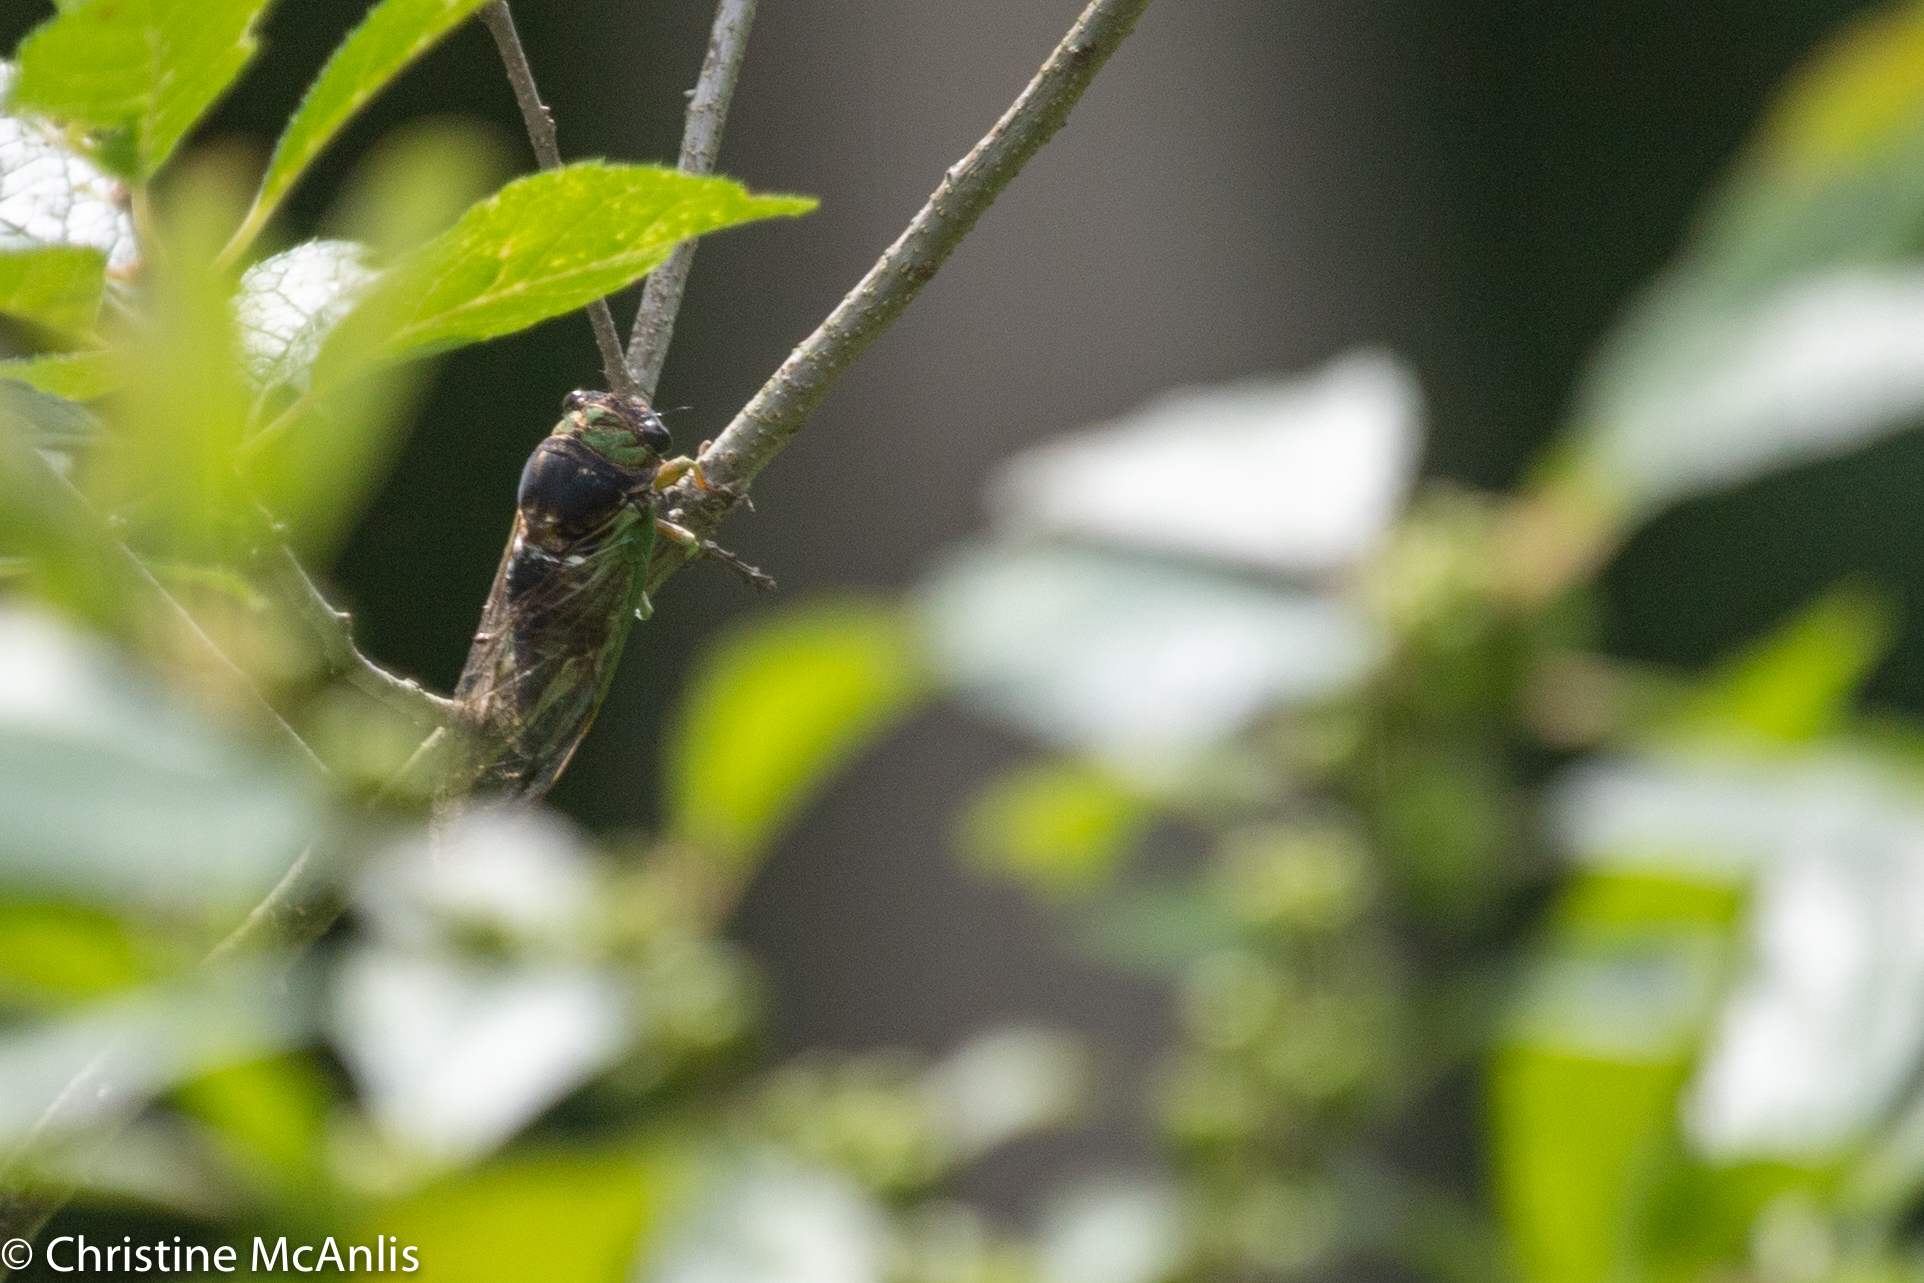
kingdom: Animalia
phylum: Arthropoda
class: Insecta
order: Hemiptera
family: Cicadidae
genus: Neotibicen
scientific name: Neotibicen tibicen
